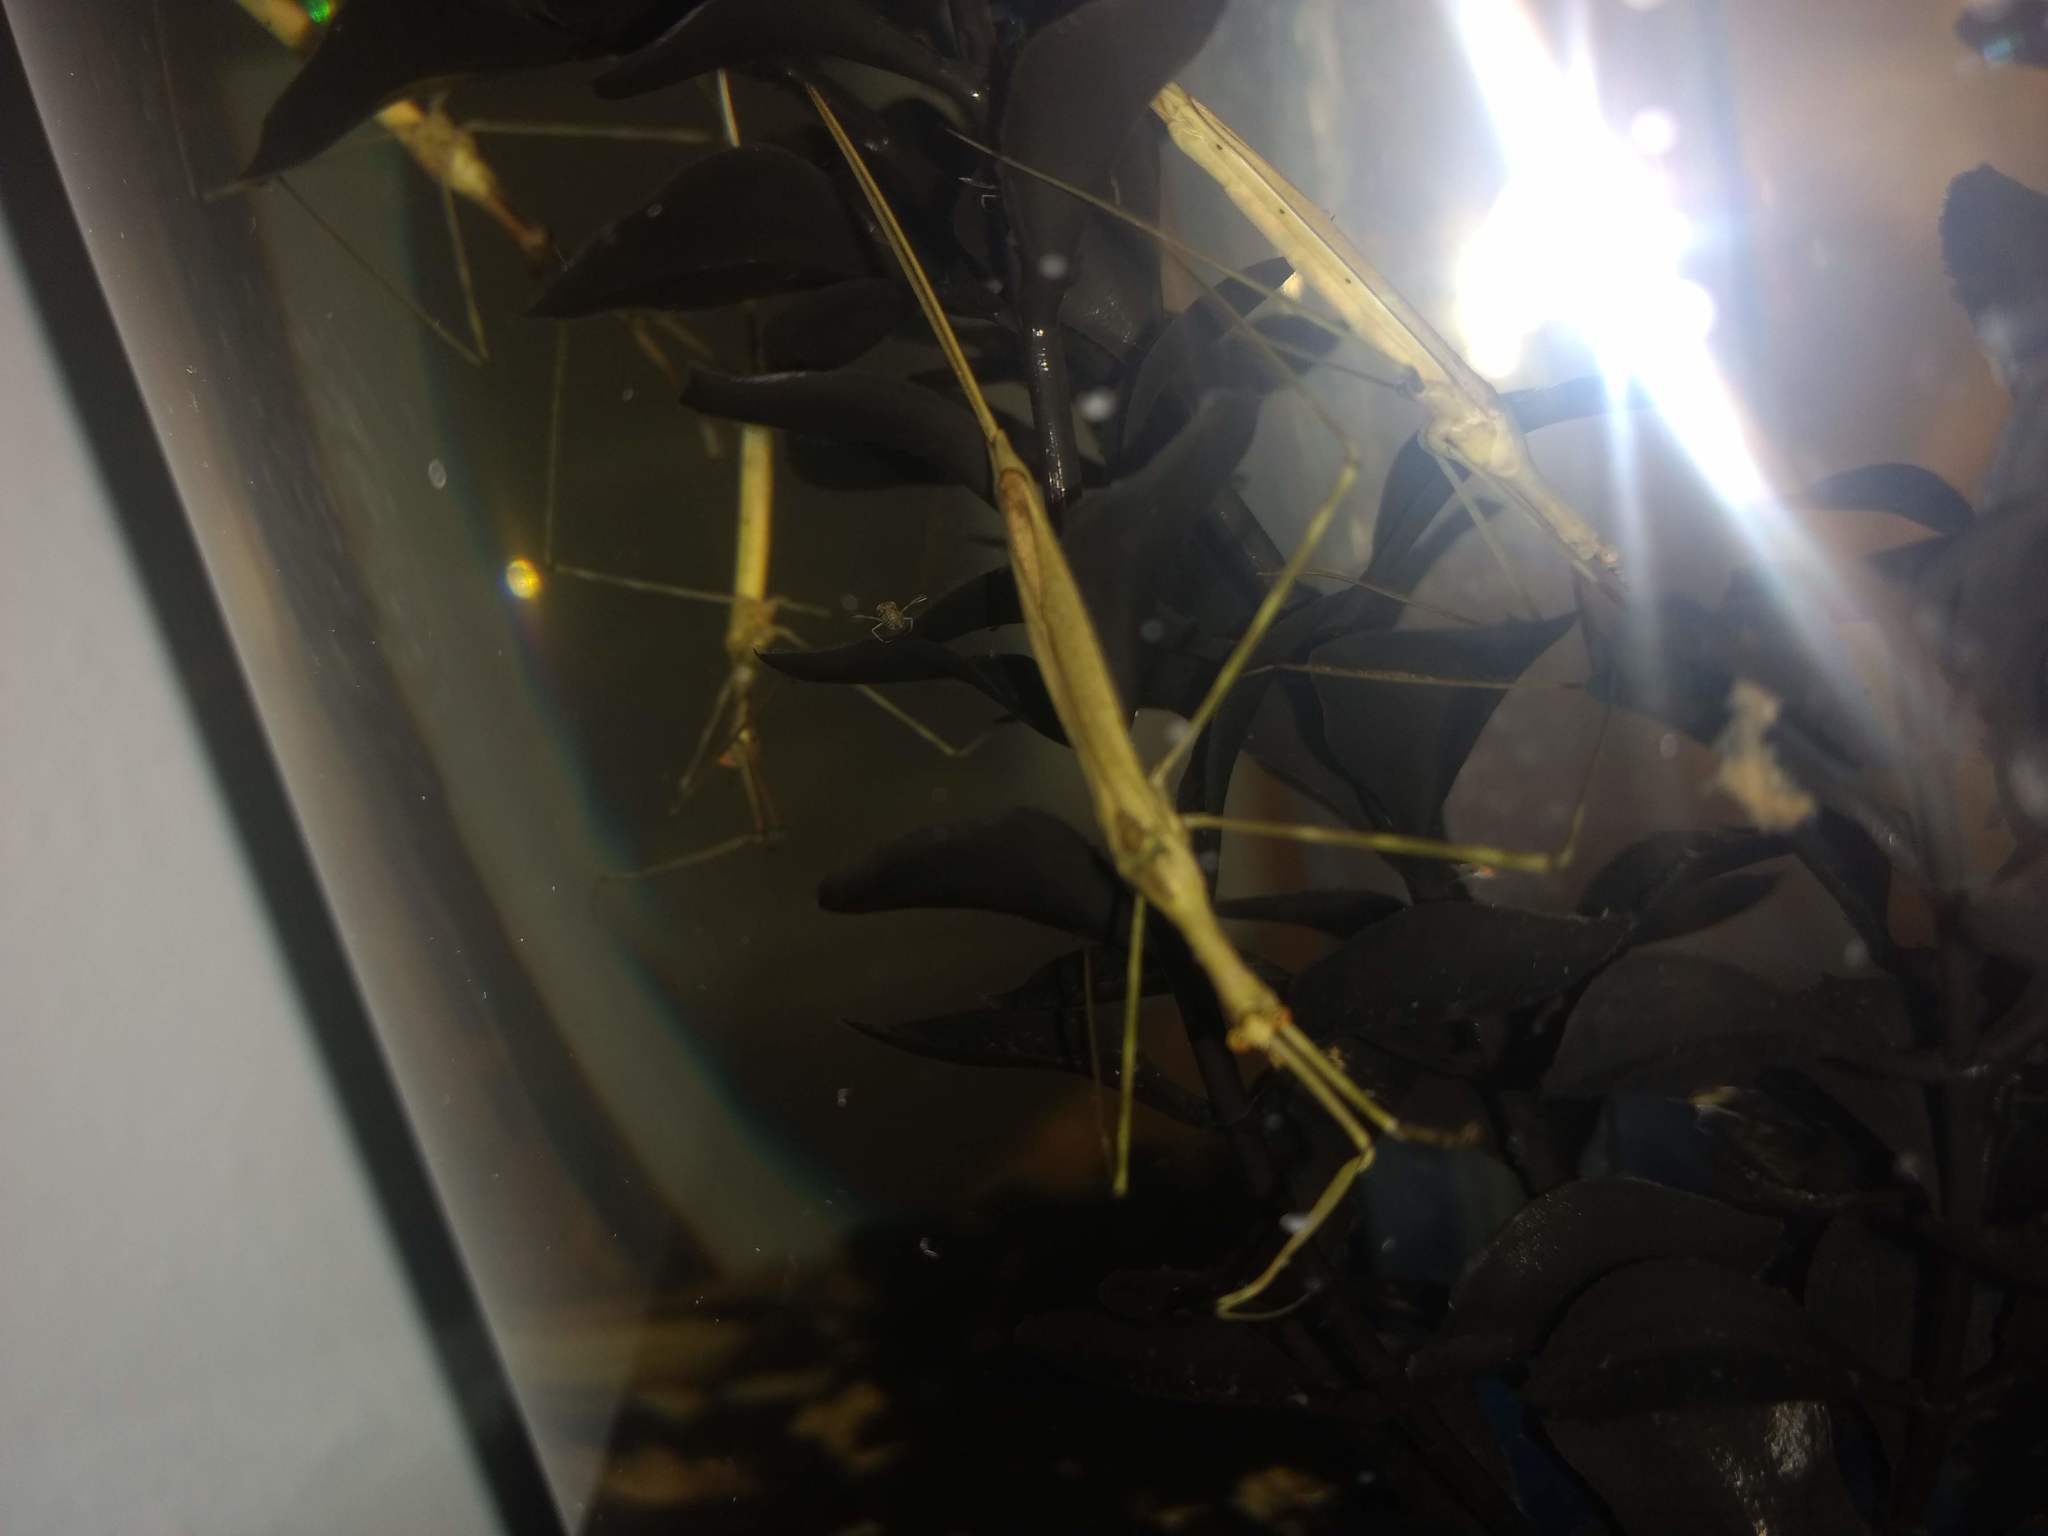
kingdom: Animalia
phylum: Arthropoda
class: Insecta
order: Hemiptera
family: Nepidae
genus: Ranatra
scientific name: Ranatra
